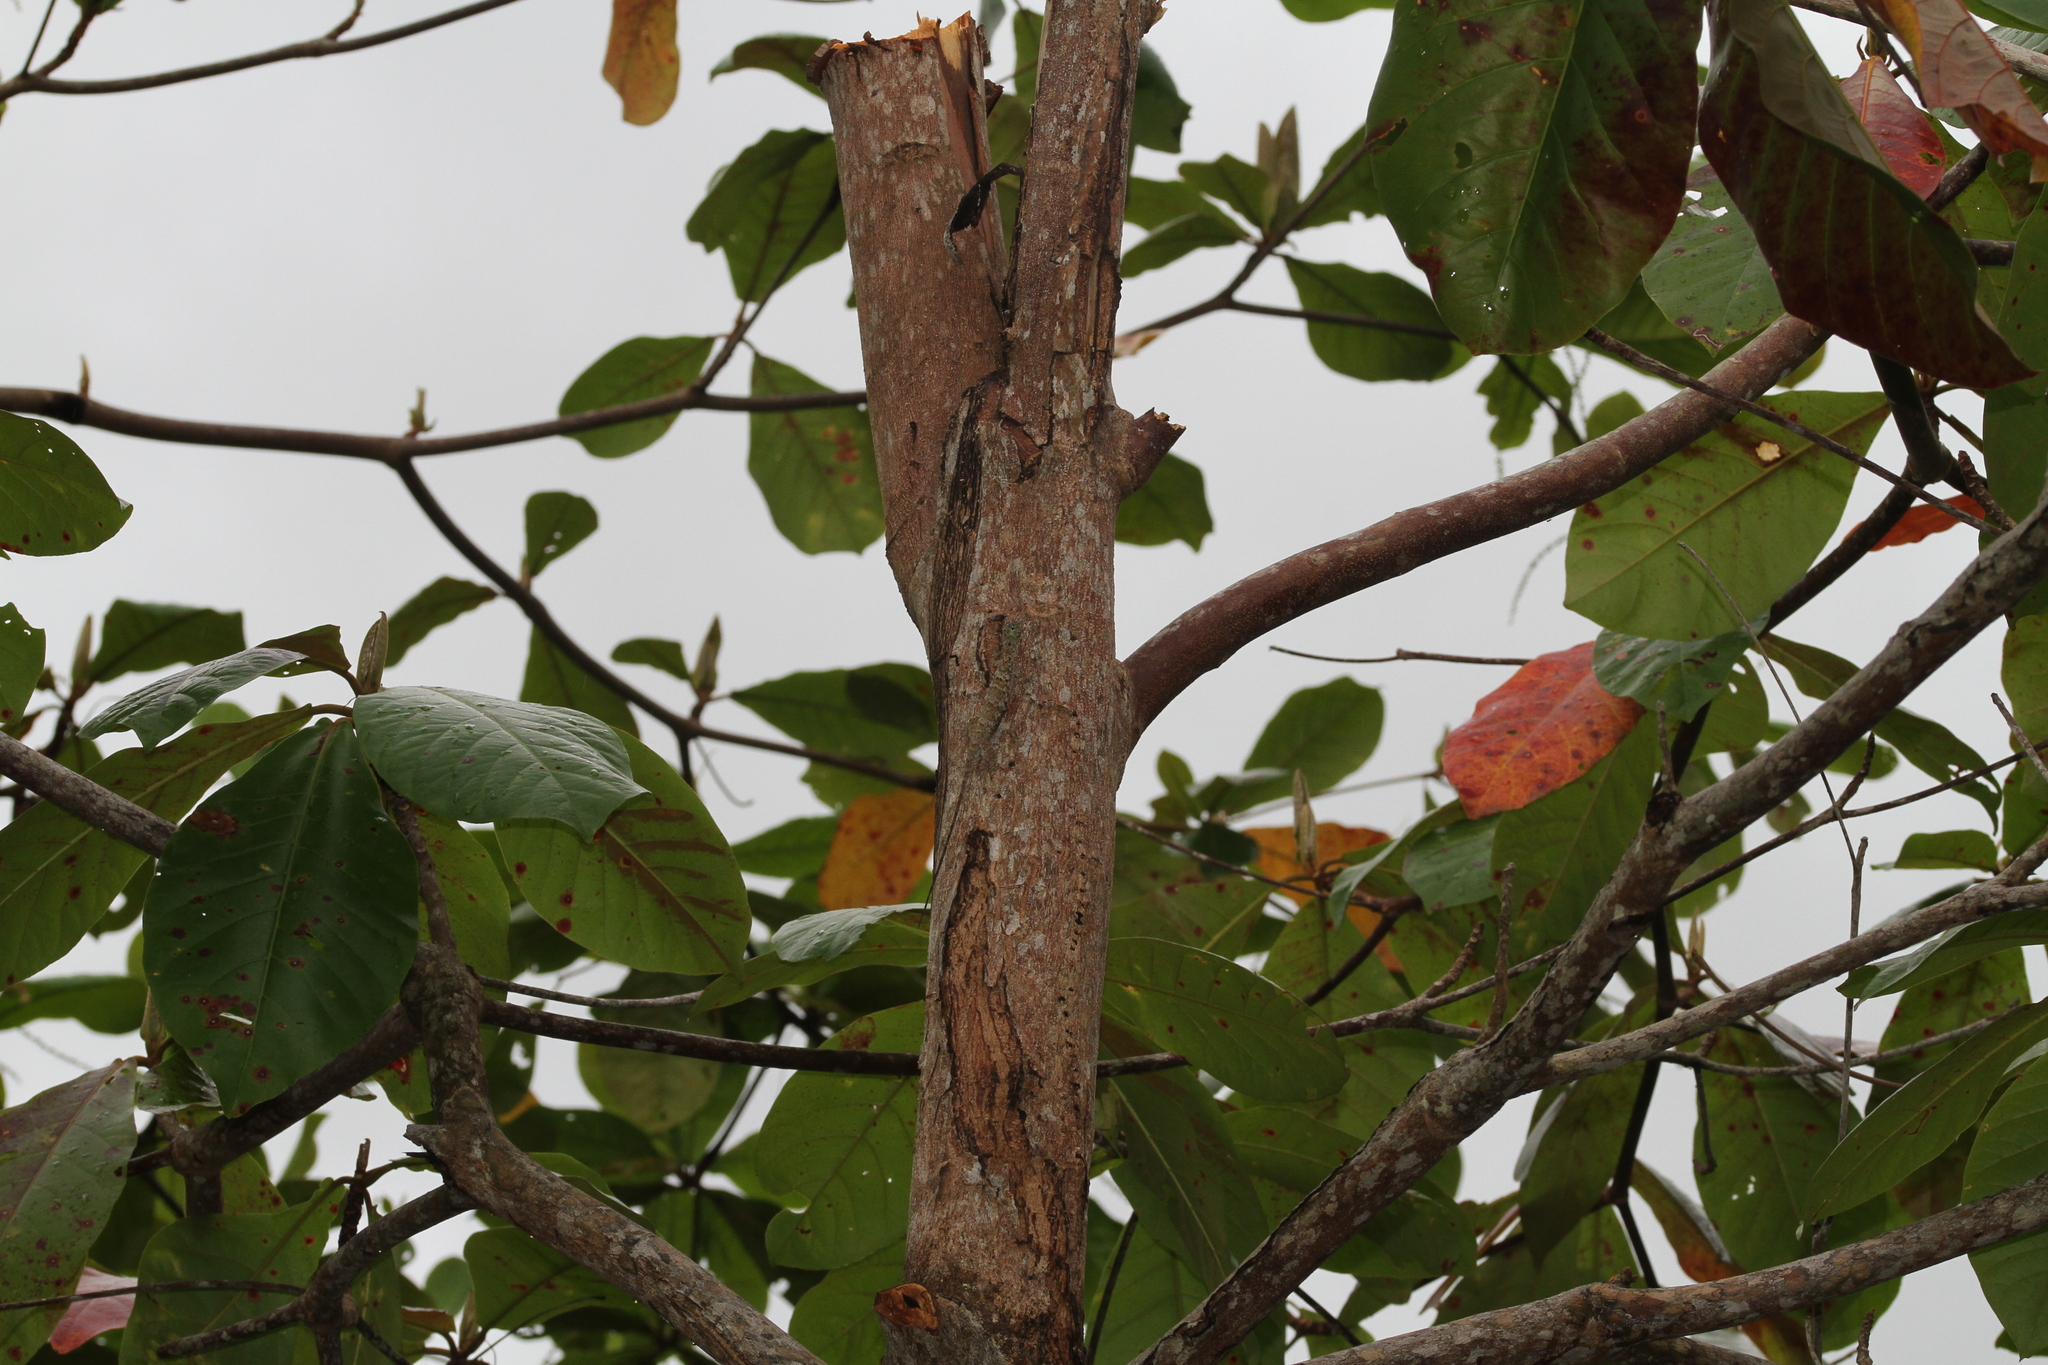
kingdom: Animalia
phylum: Chordata
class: Squamata
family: Agamidae
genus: Draco
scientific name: Draco sumatranus
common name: Common gliding lizard
